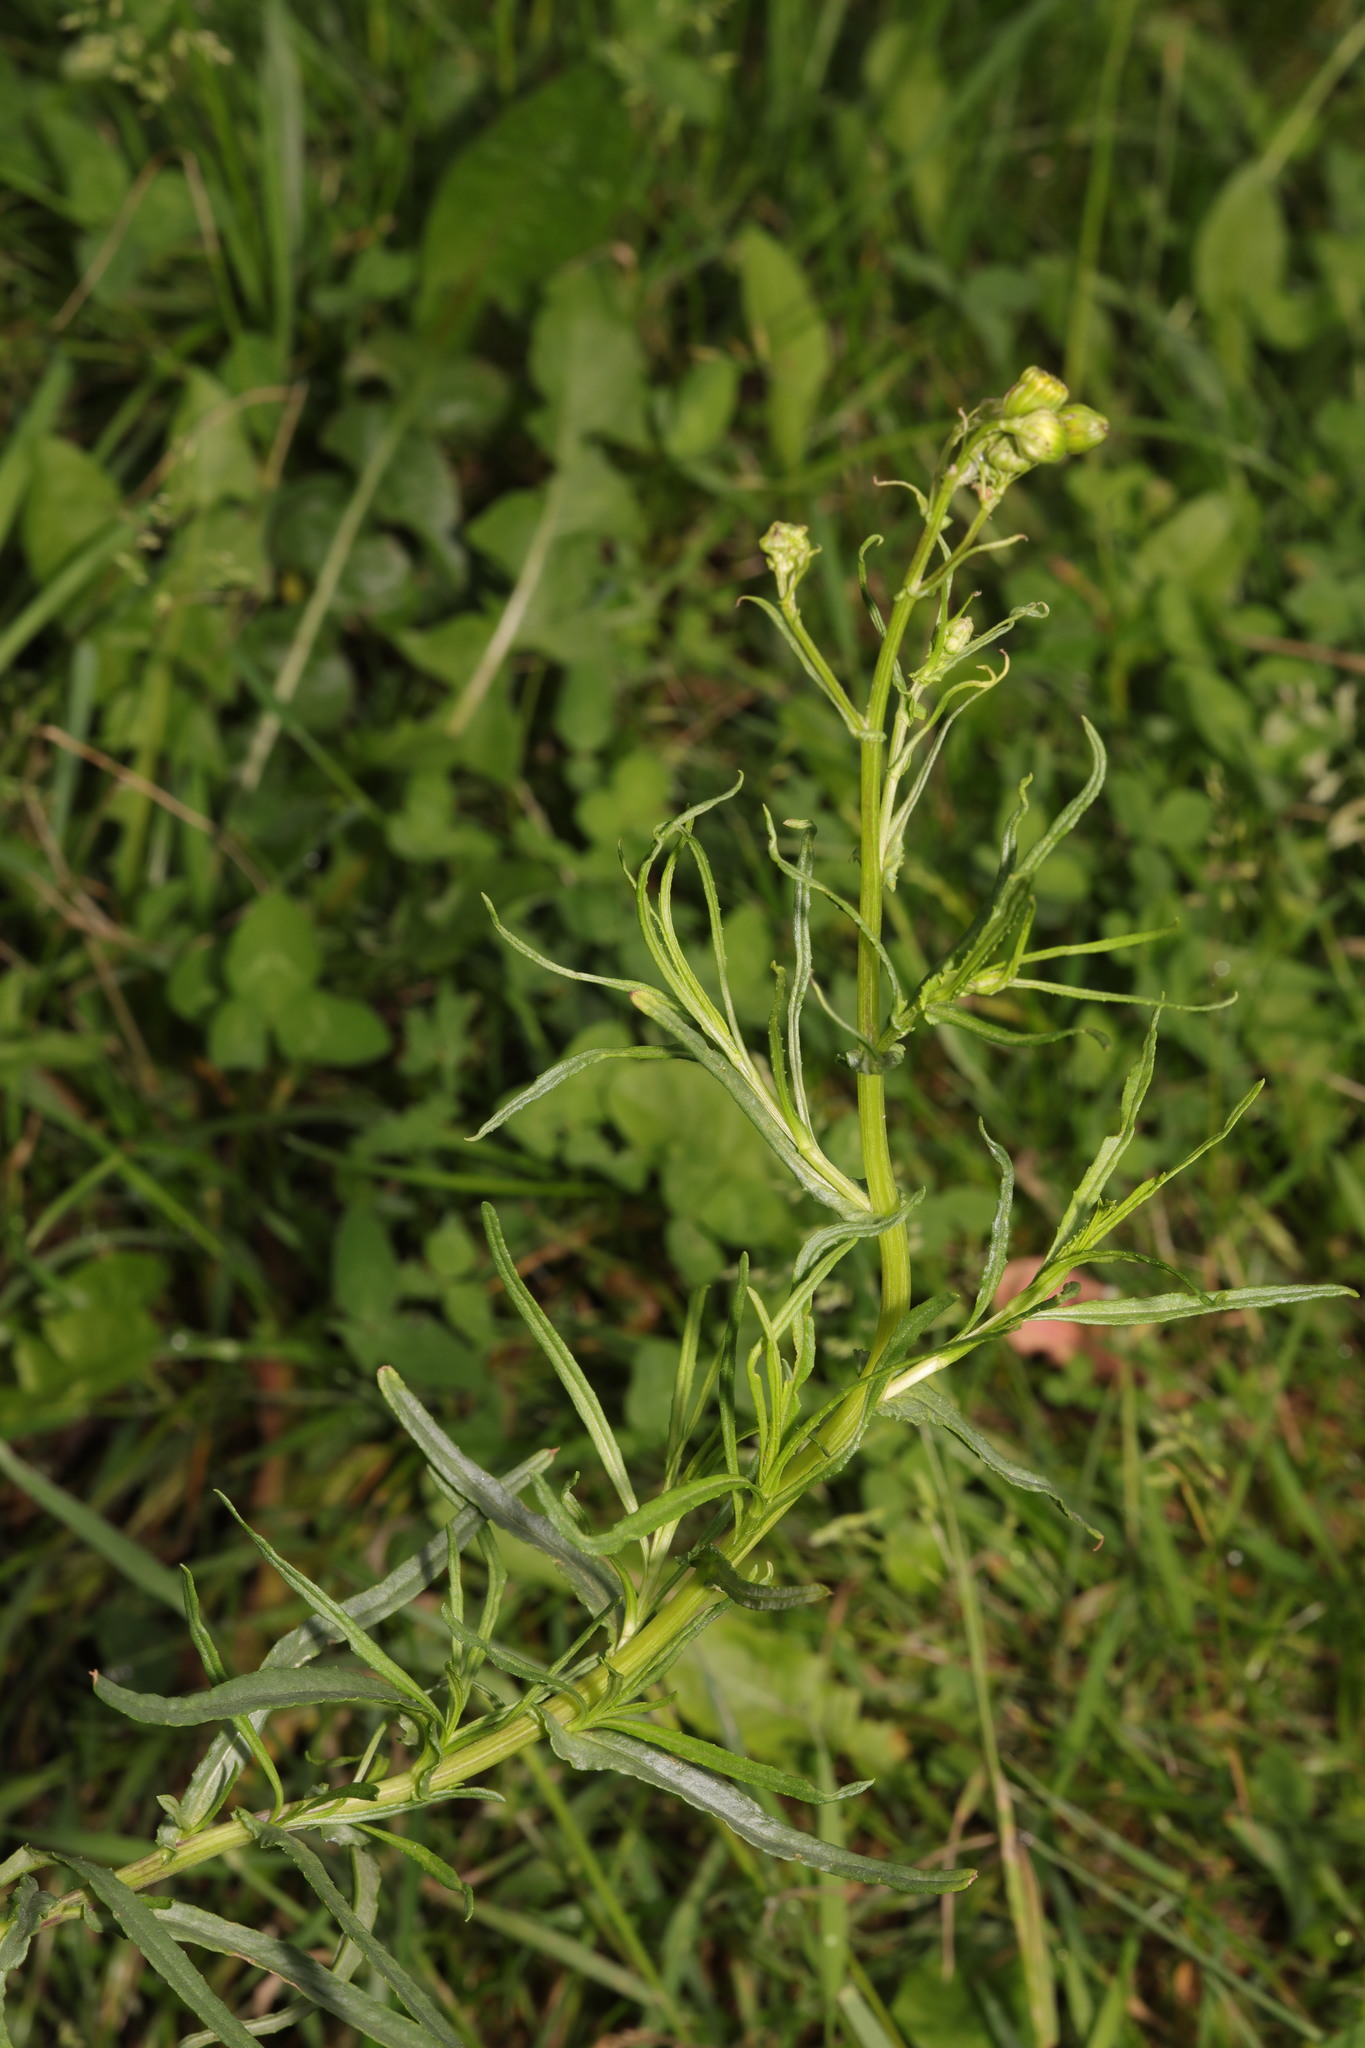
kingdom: Plantae
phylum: Tracheophyta
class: Magnoliopsida
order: Asterales
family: Asteraceae
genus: Senecio
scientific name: Senecio inaequidens
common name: Narrow-leaved ragwort
